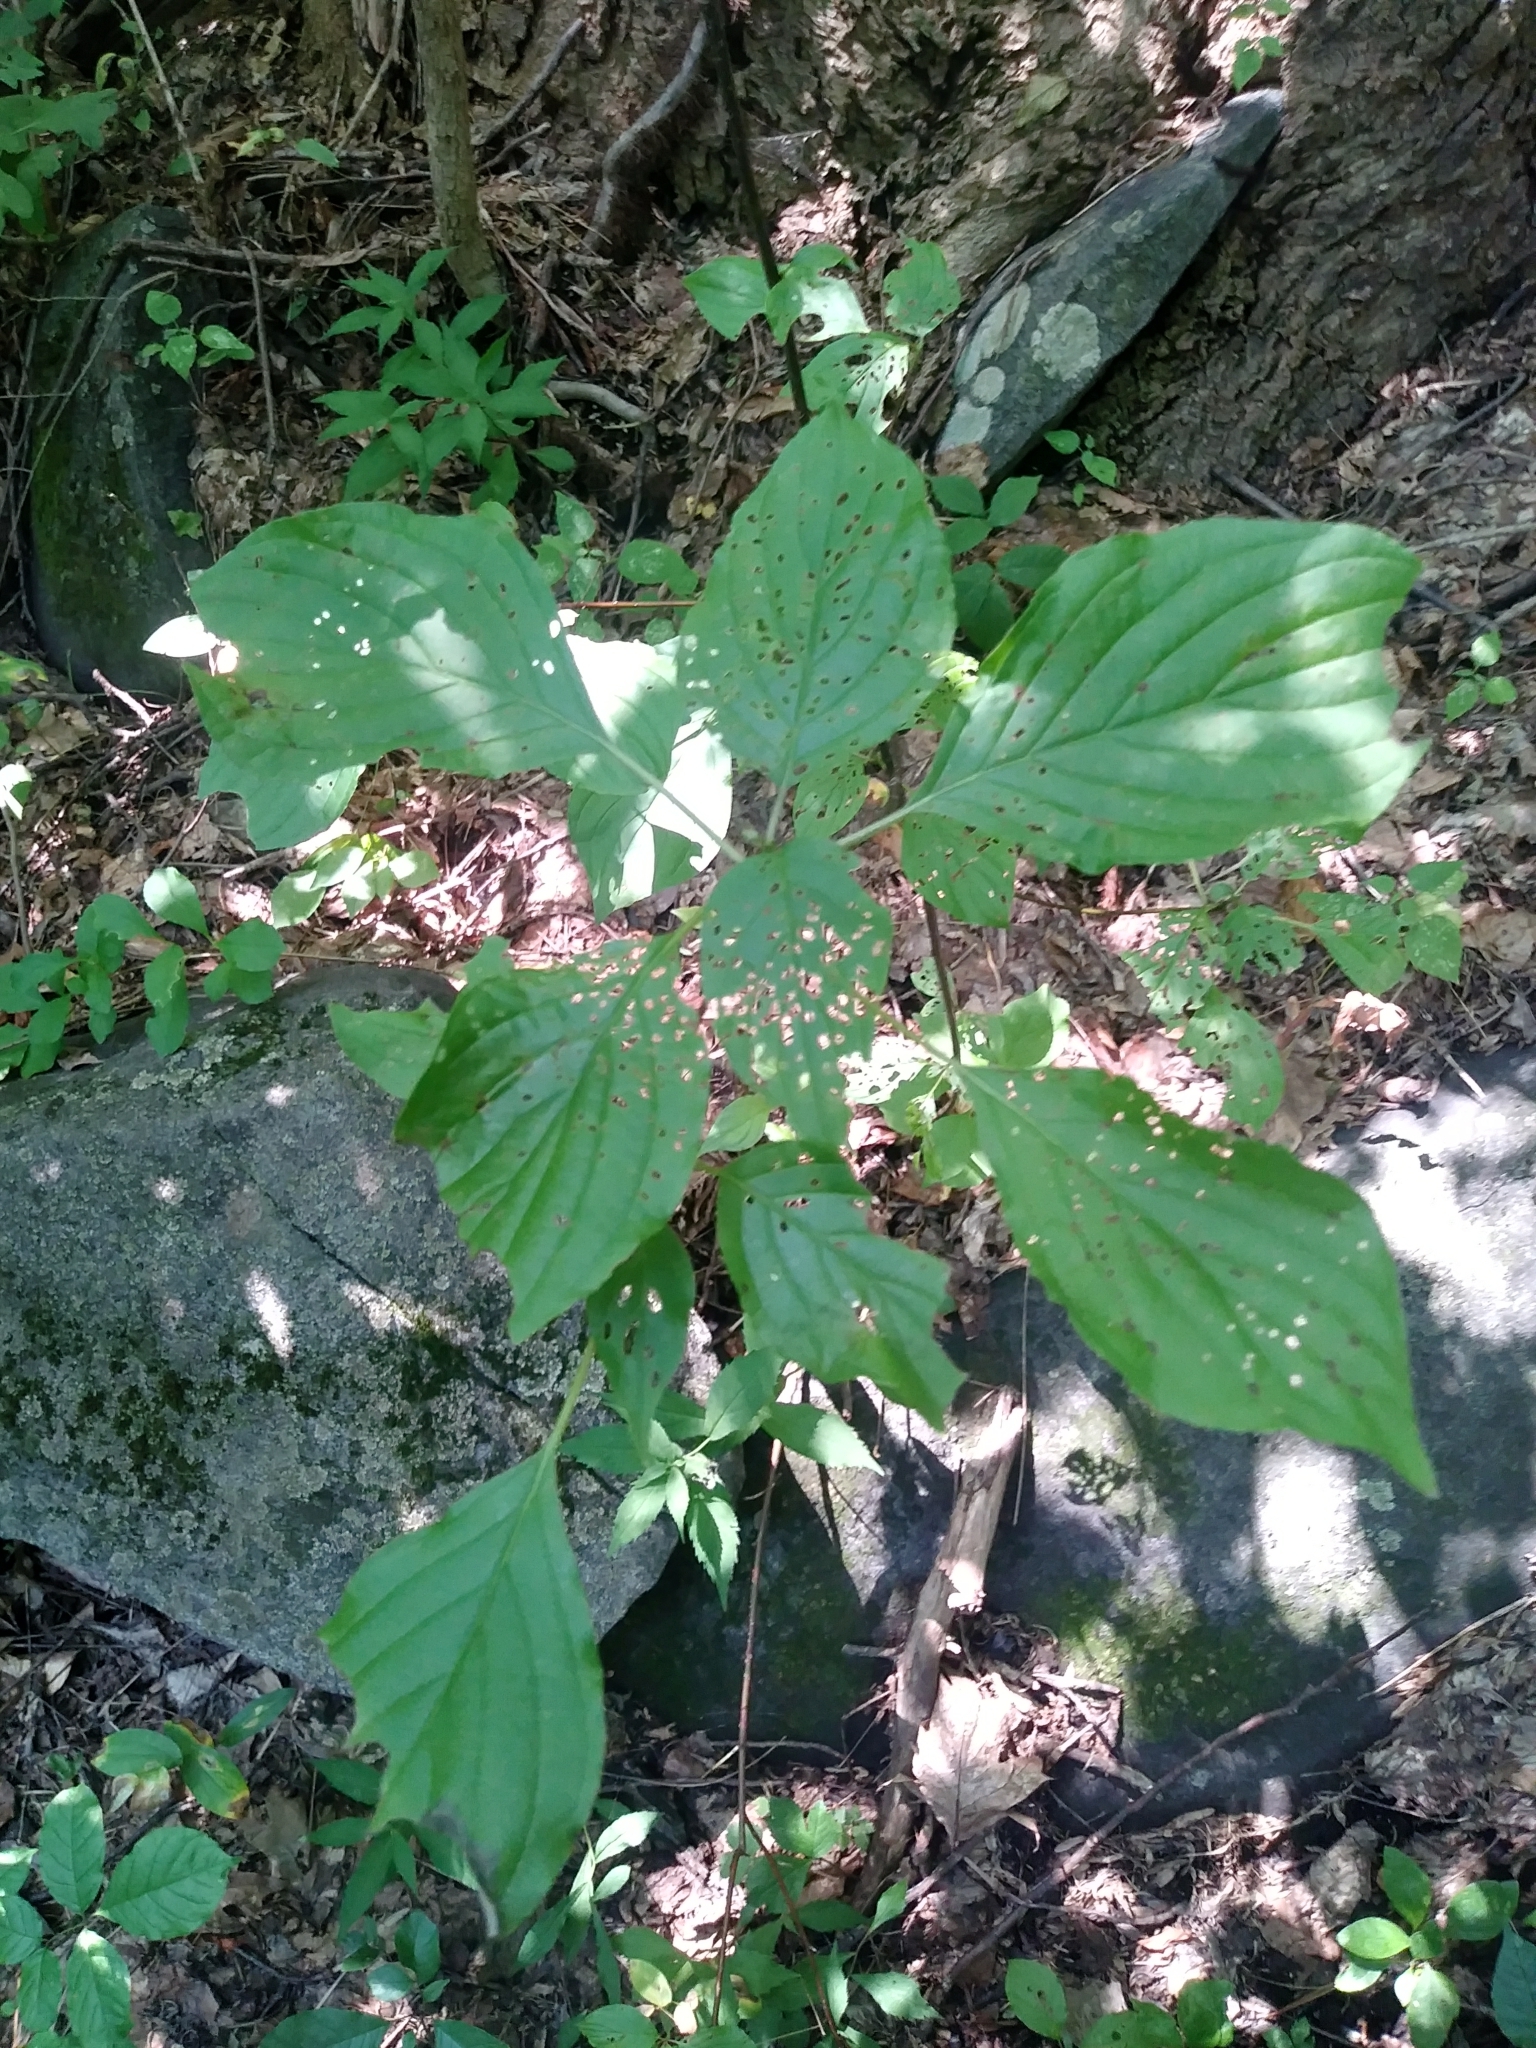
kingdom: Plantae
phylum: Tracheophyta
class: Magnoliopsida
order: Cornales
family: Cornaceae
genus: Cornus
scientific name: Cornus alternifolia
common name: Pagoda dogwood
